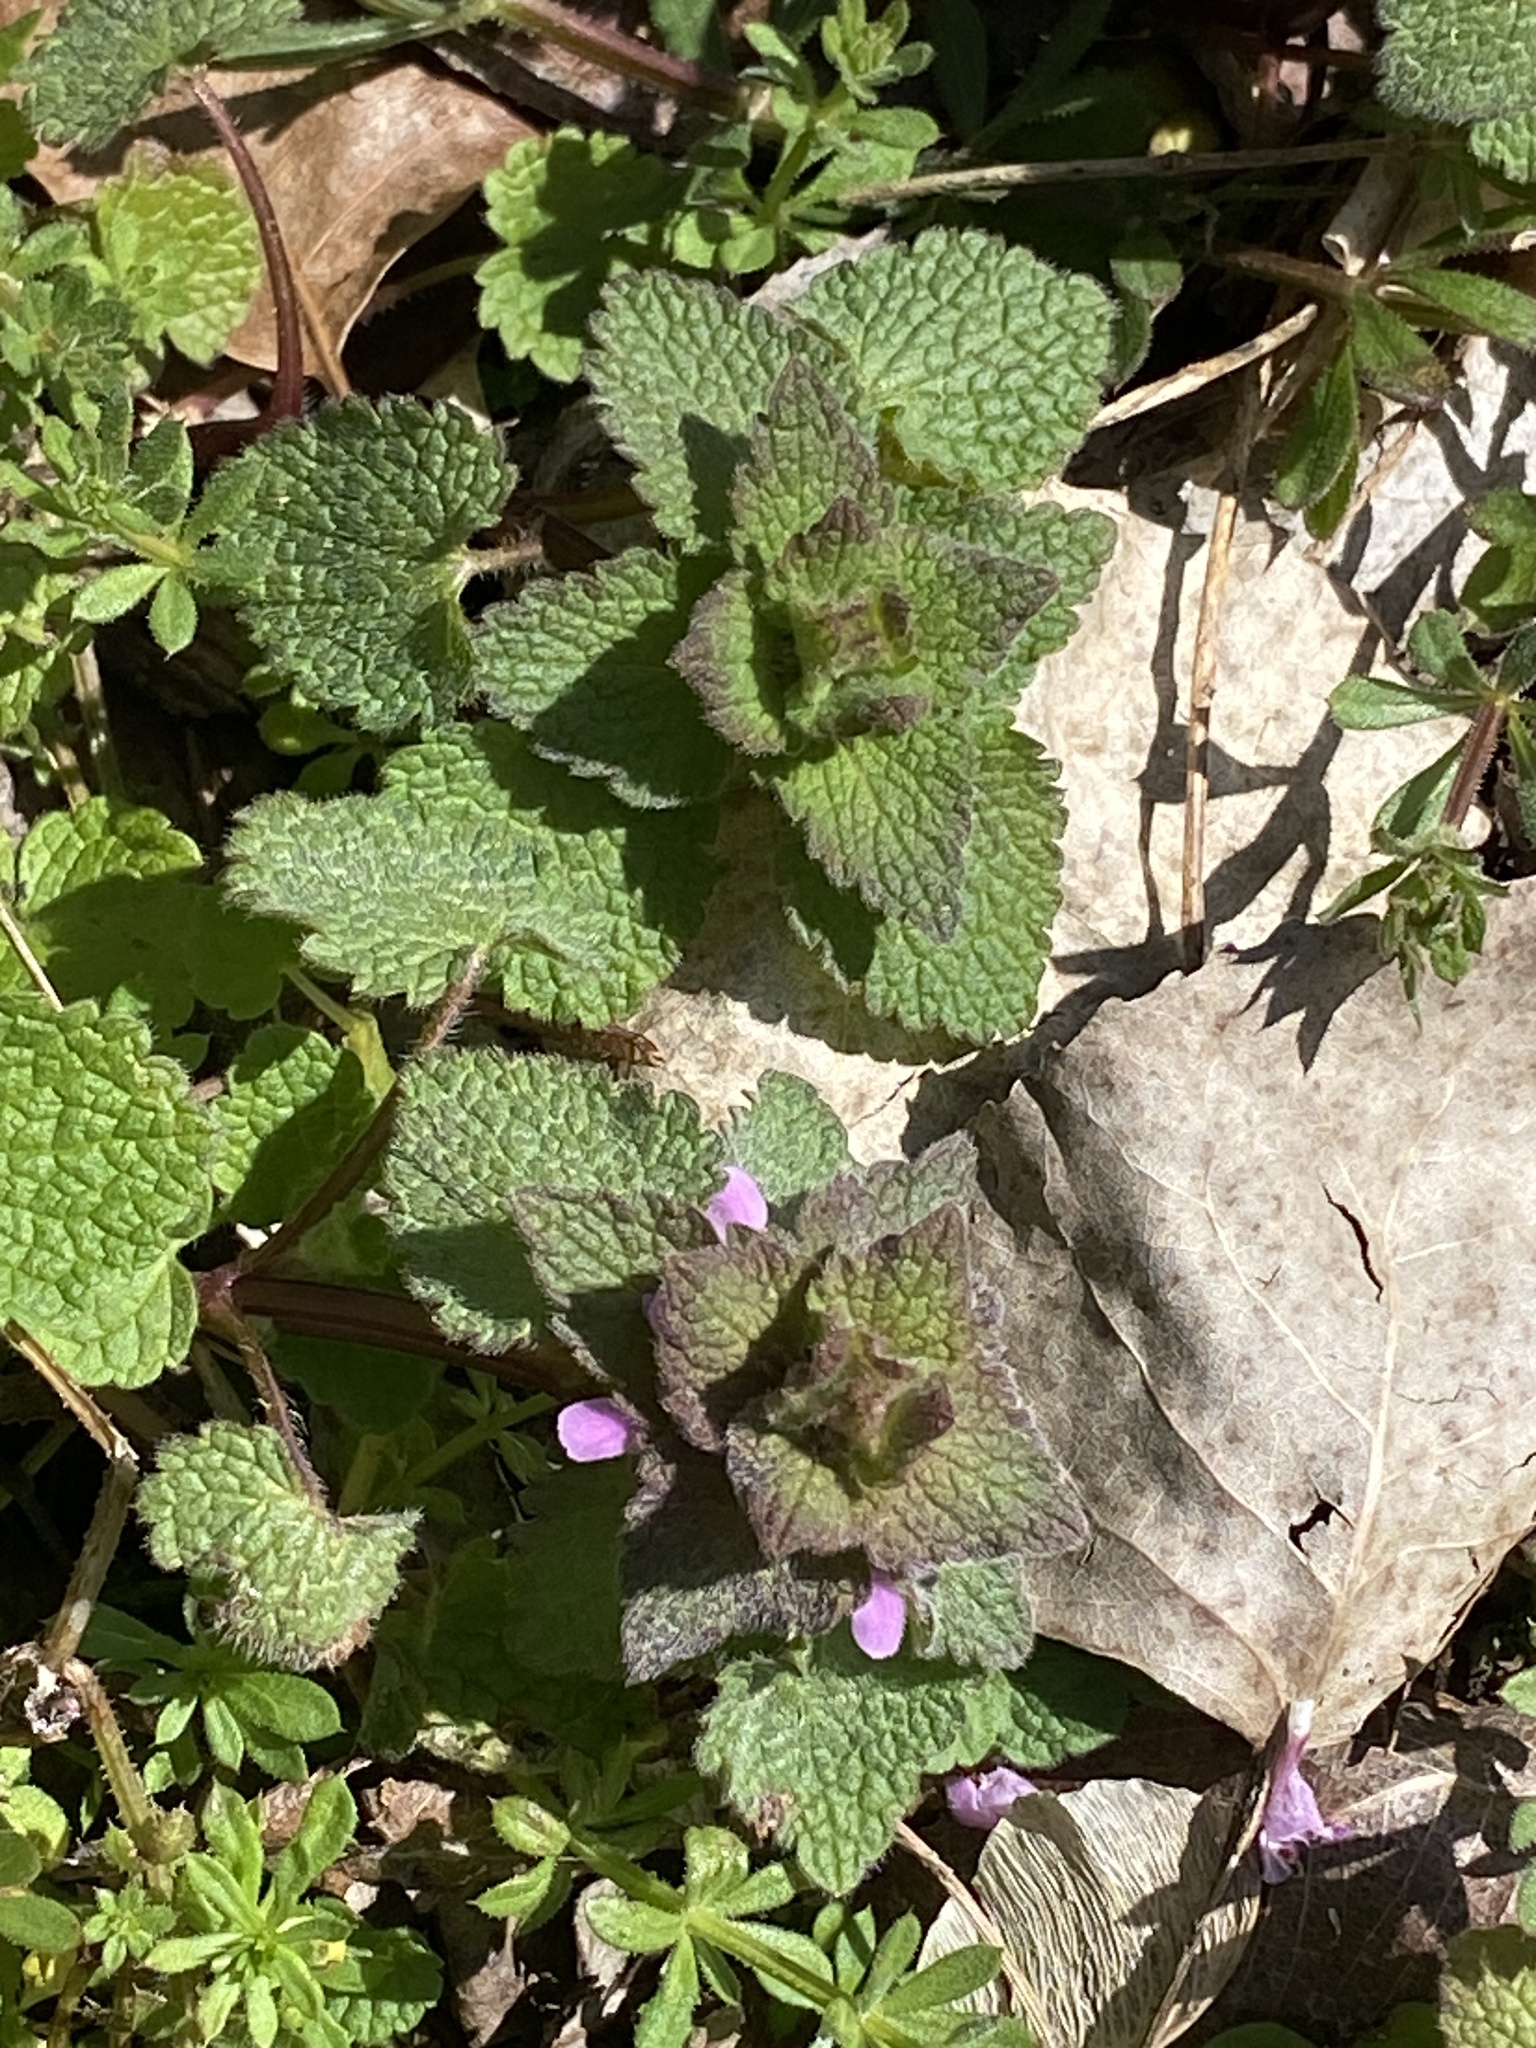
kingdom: Plantae
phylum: Tracheophyta
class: Magnoliopsida
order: Lamiales
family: Lamiaceae
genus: Lamium
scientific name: Lamium purpureum
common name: Red dead-nettle
